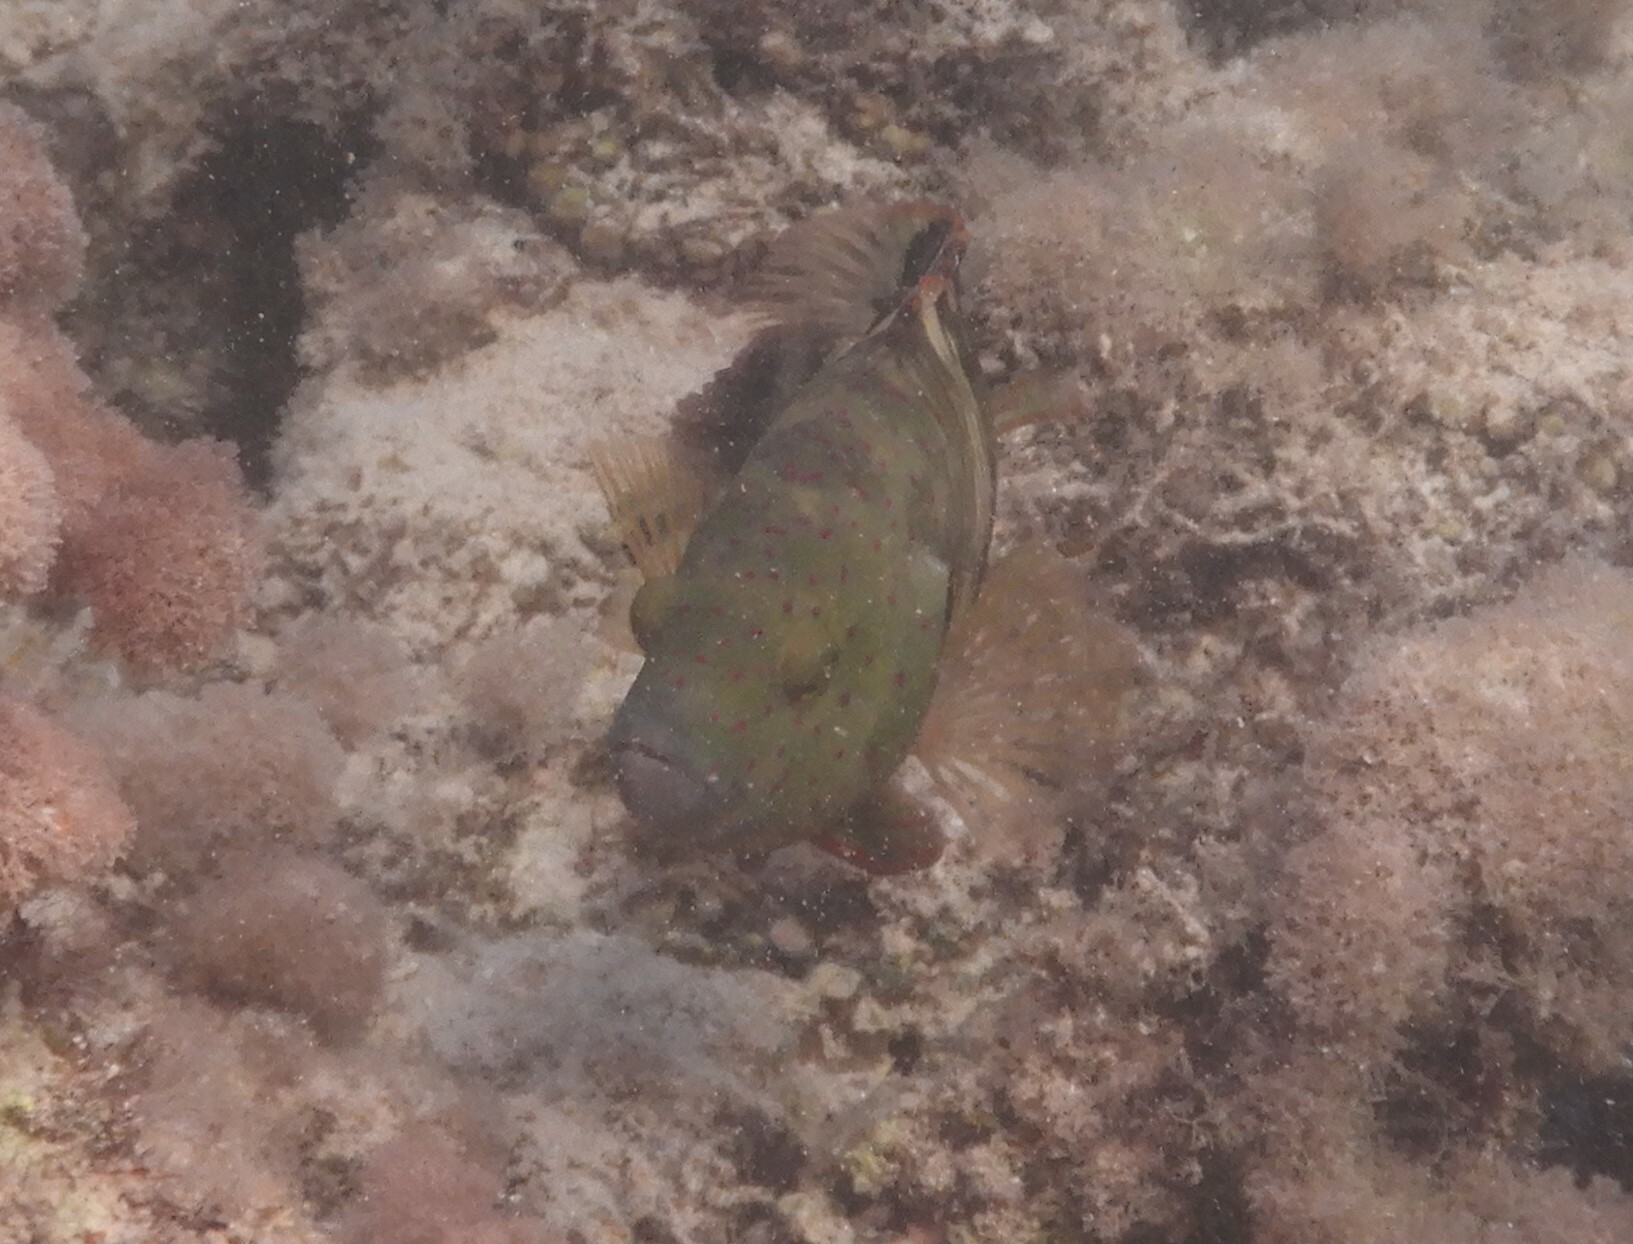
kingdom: Animalia
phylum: Chordata
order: Perciformes
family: Labridae
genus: Cheilinus
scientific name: Cheilinus lunulatus
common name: Broomtail wrasse
